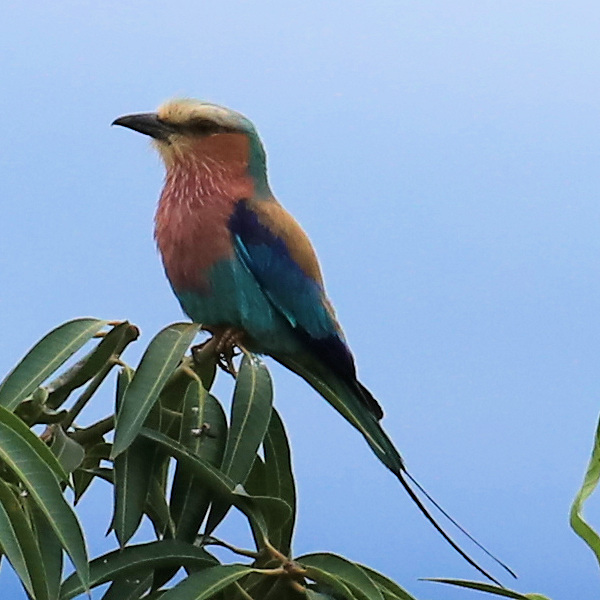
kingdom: Animalia
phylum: Chordata
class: Aves
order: Coraciiformes
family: Coraciidae
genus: Coracias
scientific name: Coracias caudatus
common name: Lilac-breasted roller
